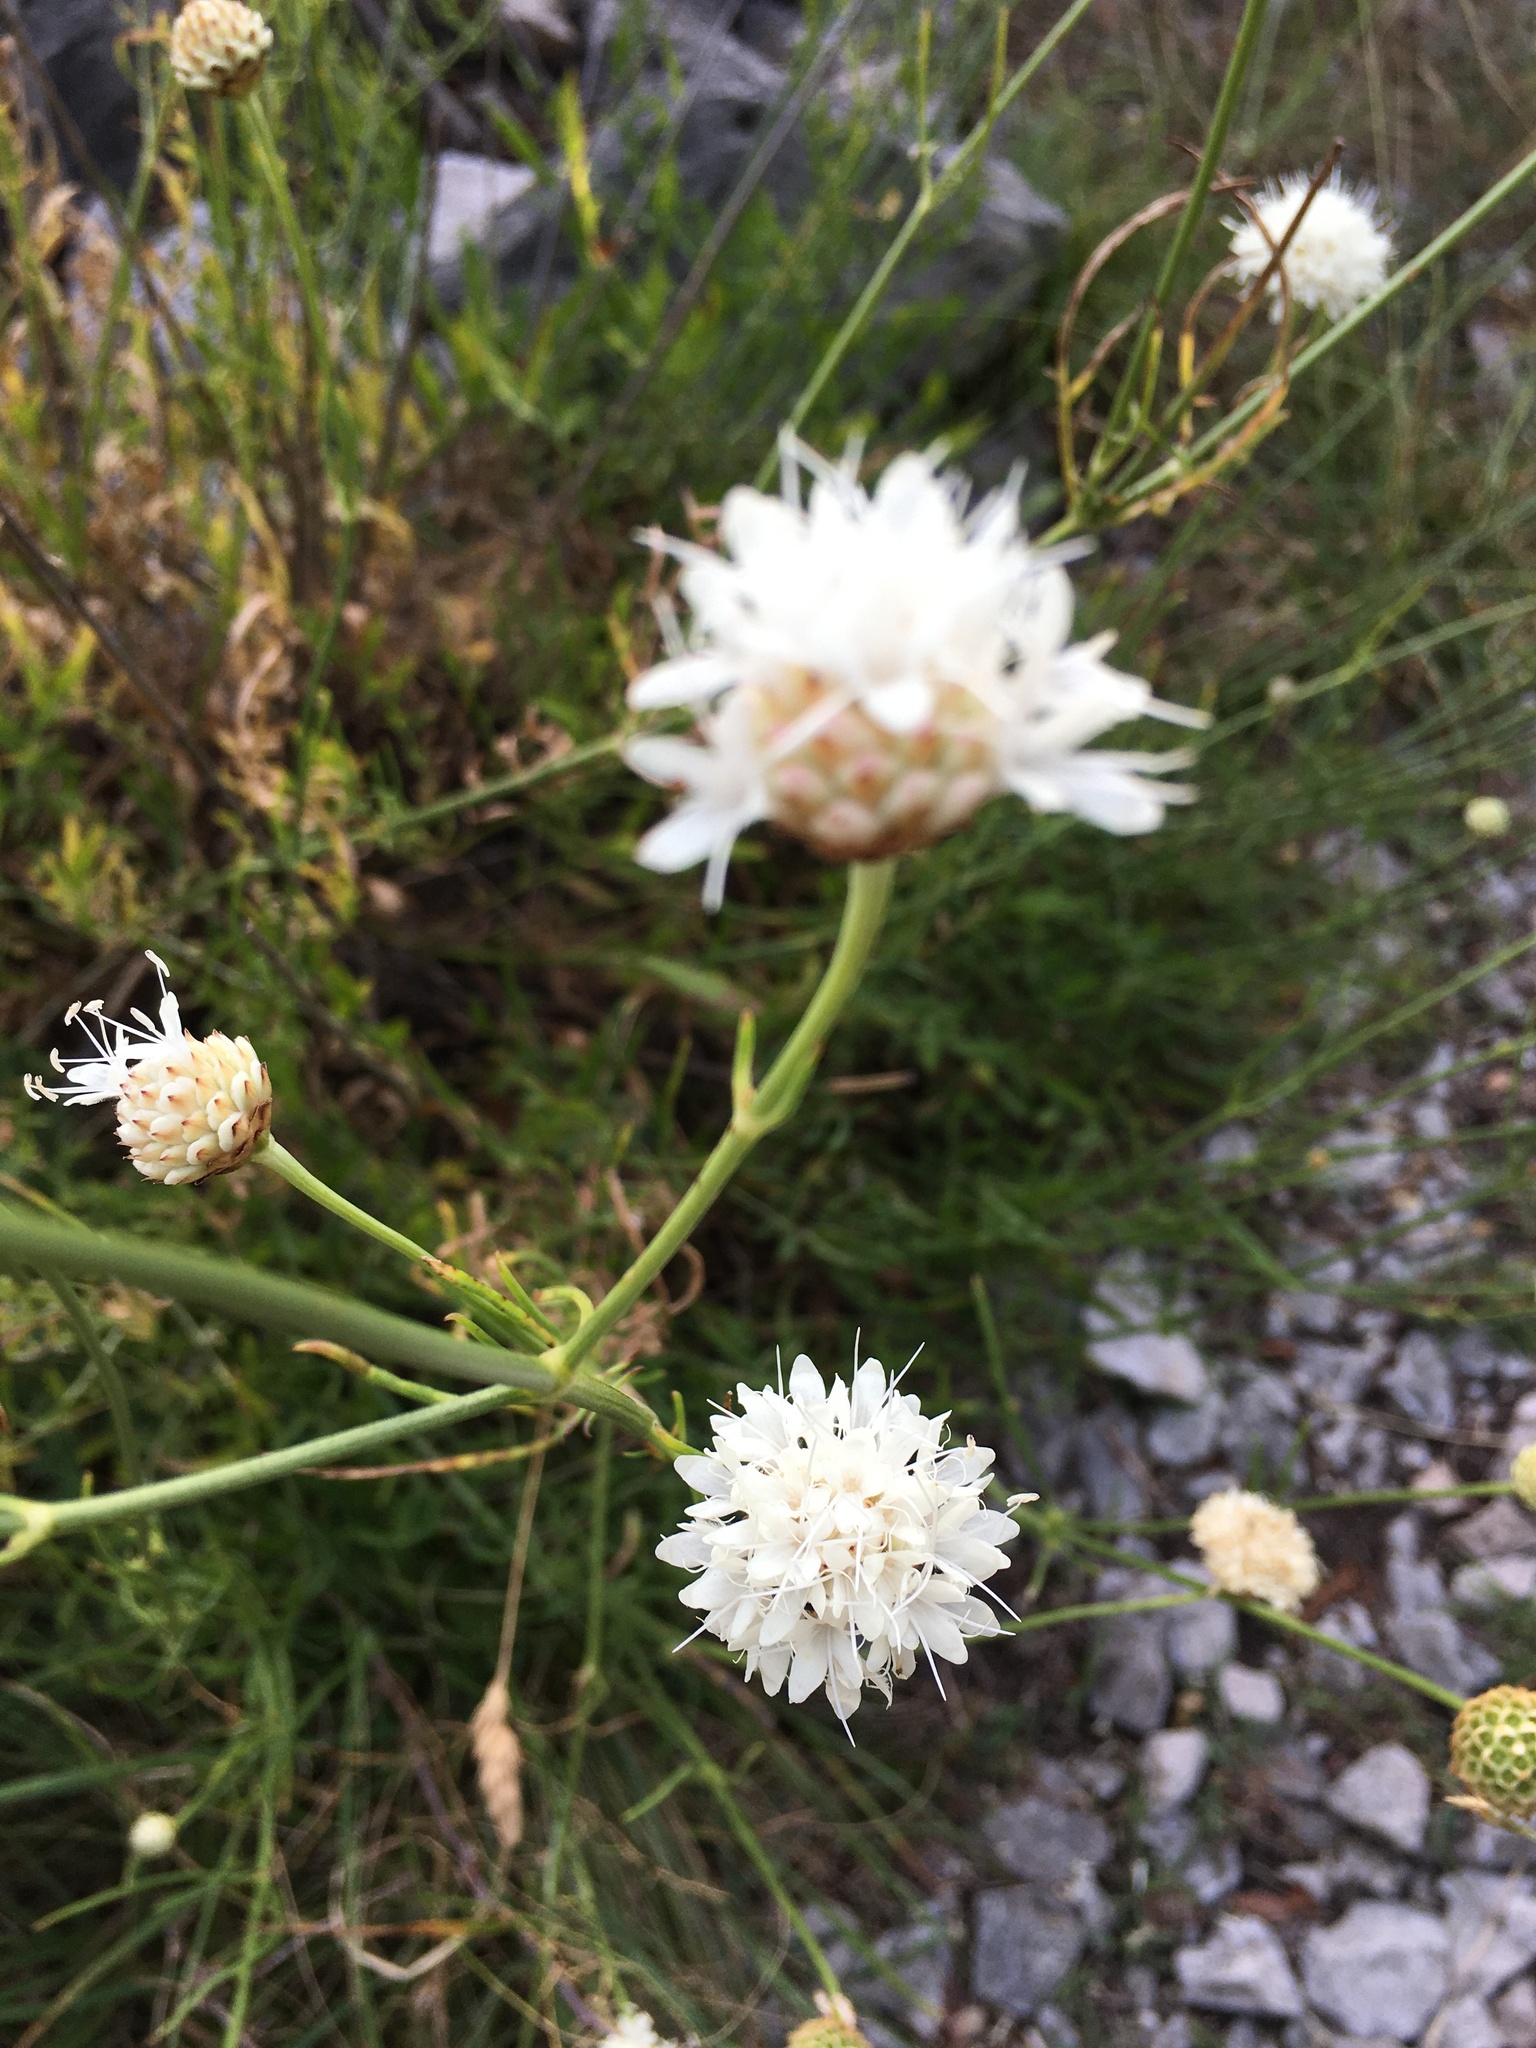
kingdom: Plantae
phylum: Tracheophyta
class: Magnoliopsida
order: Dipsacales
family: Caprifoliaceae
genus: Cephalaria
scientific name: Cephalaria leucantha
